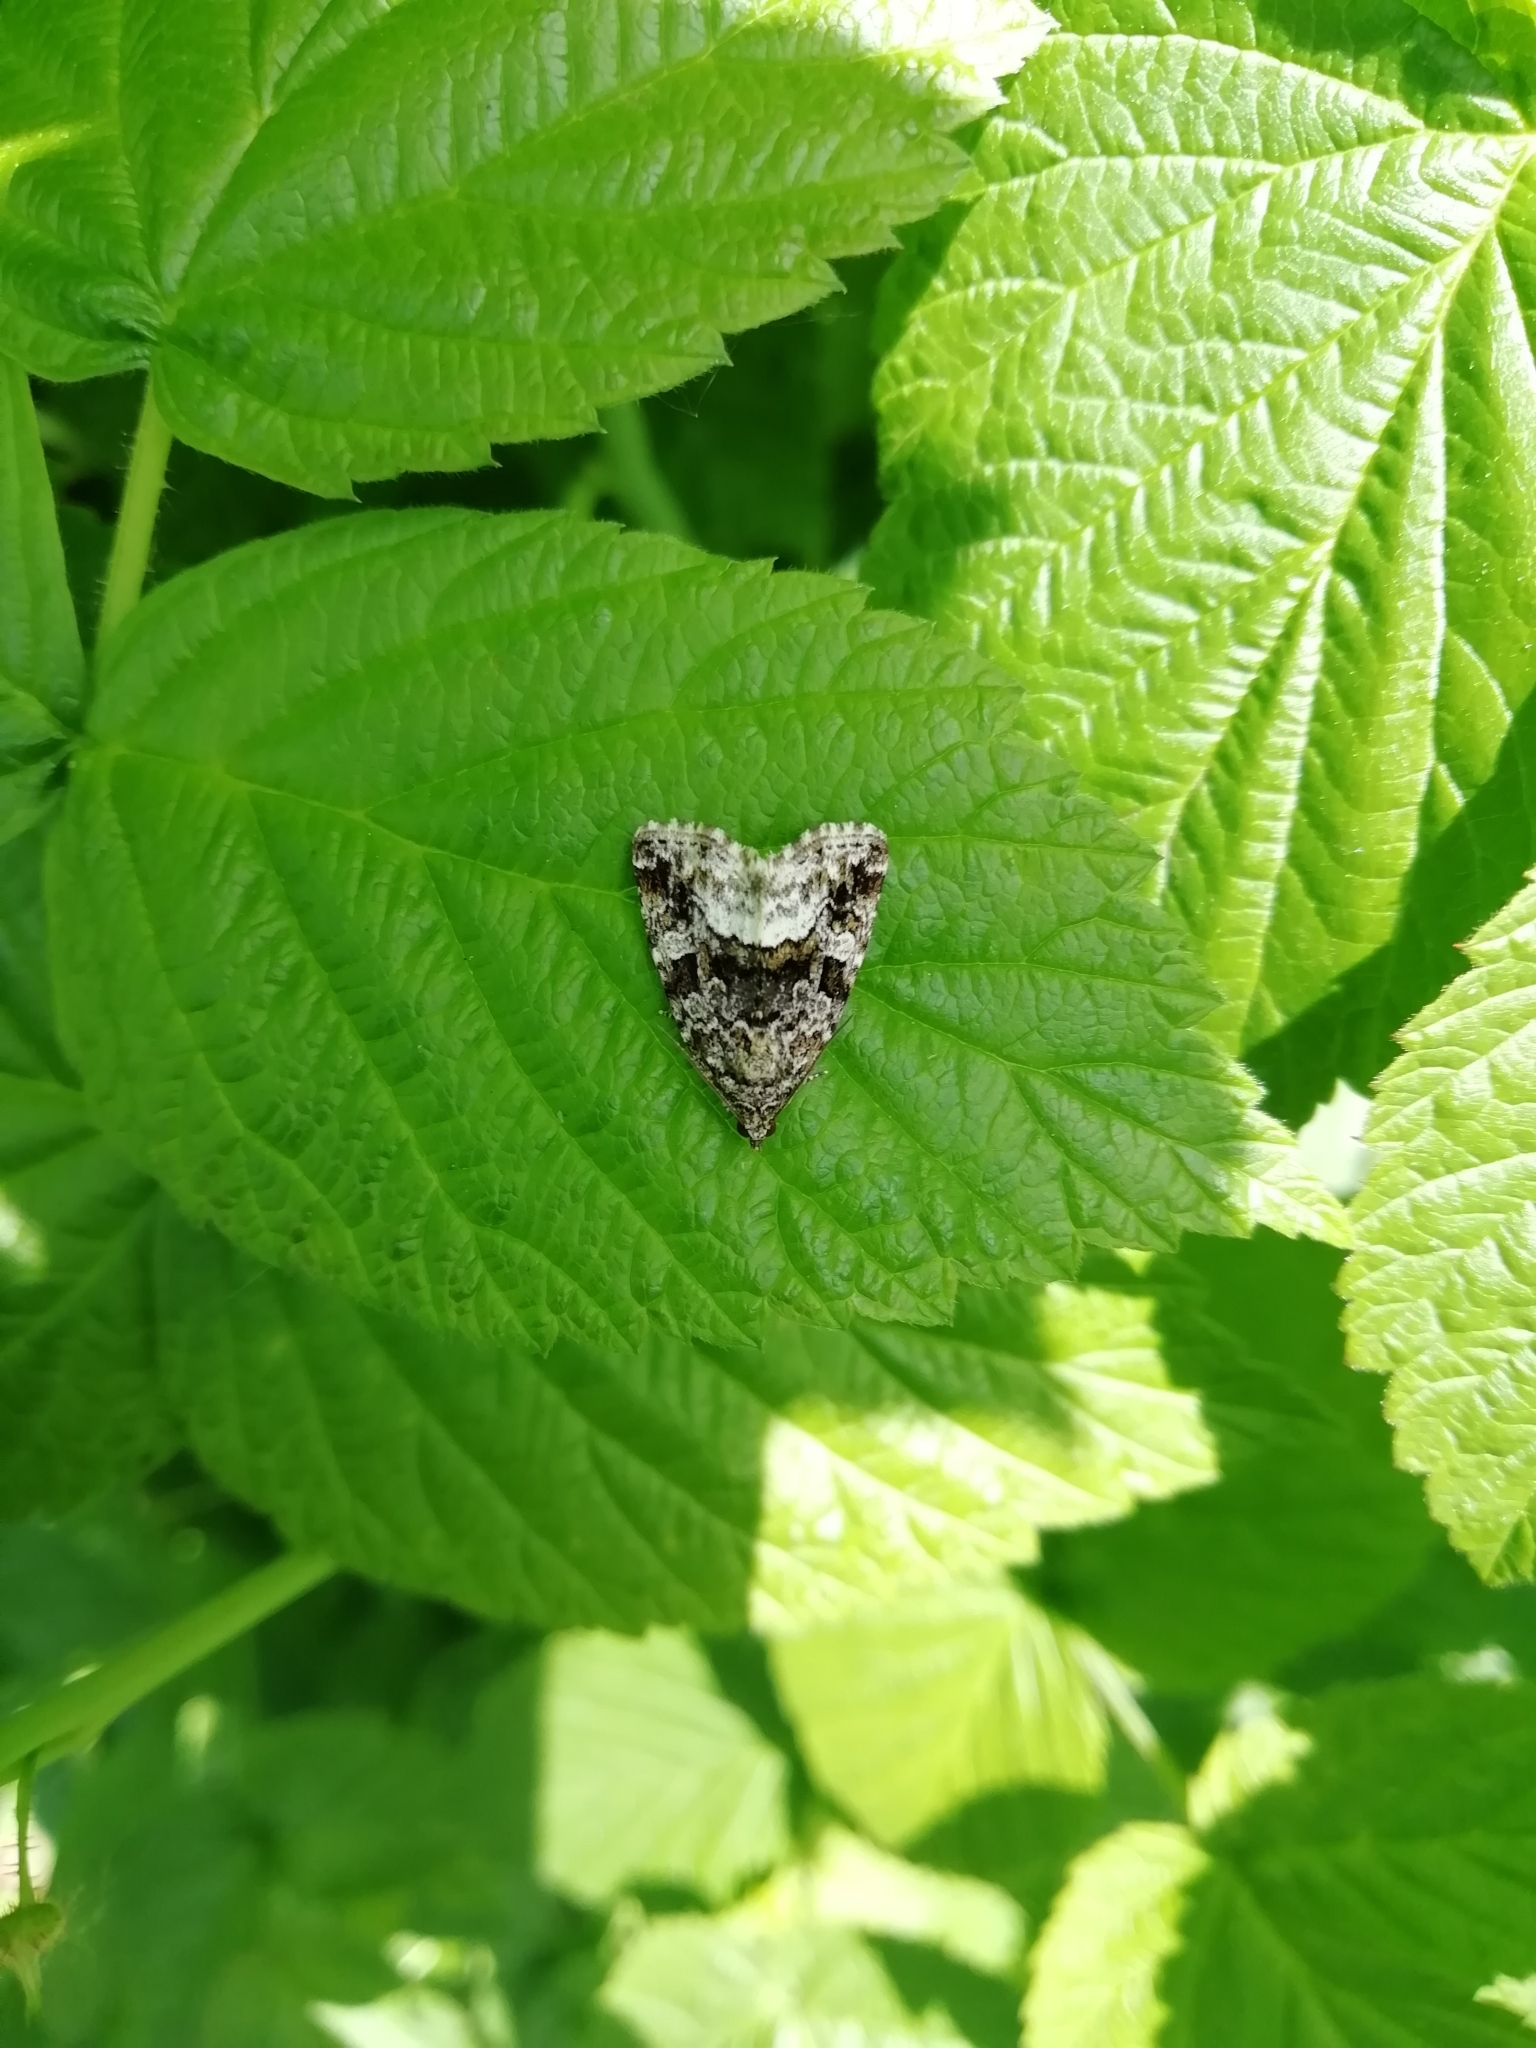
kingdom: Animalia
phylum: Arthropoda
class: Insecta
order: Lepidoptera
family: Noctuidae
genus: Deltote
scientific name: Deltote pygarga
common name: Marbled white spot
